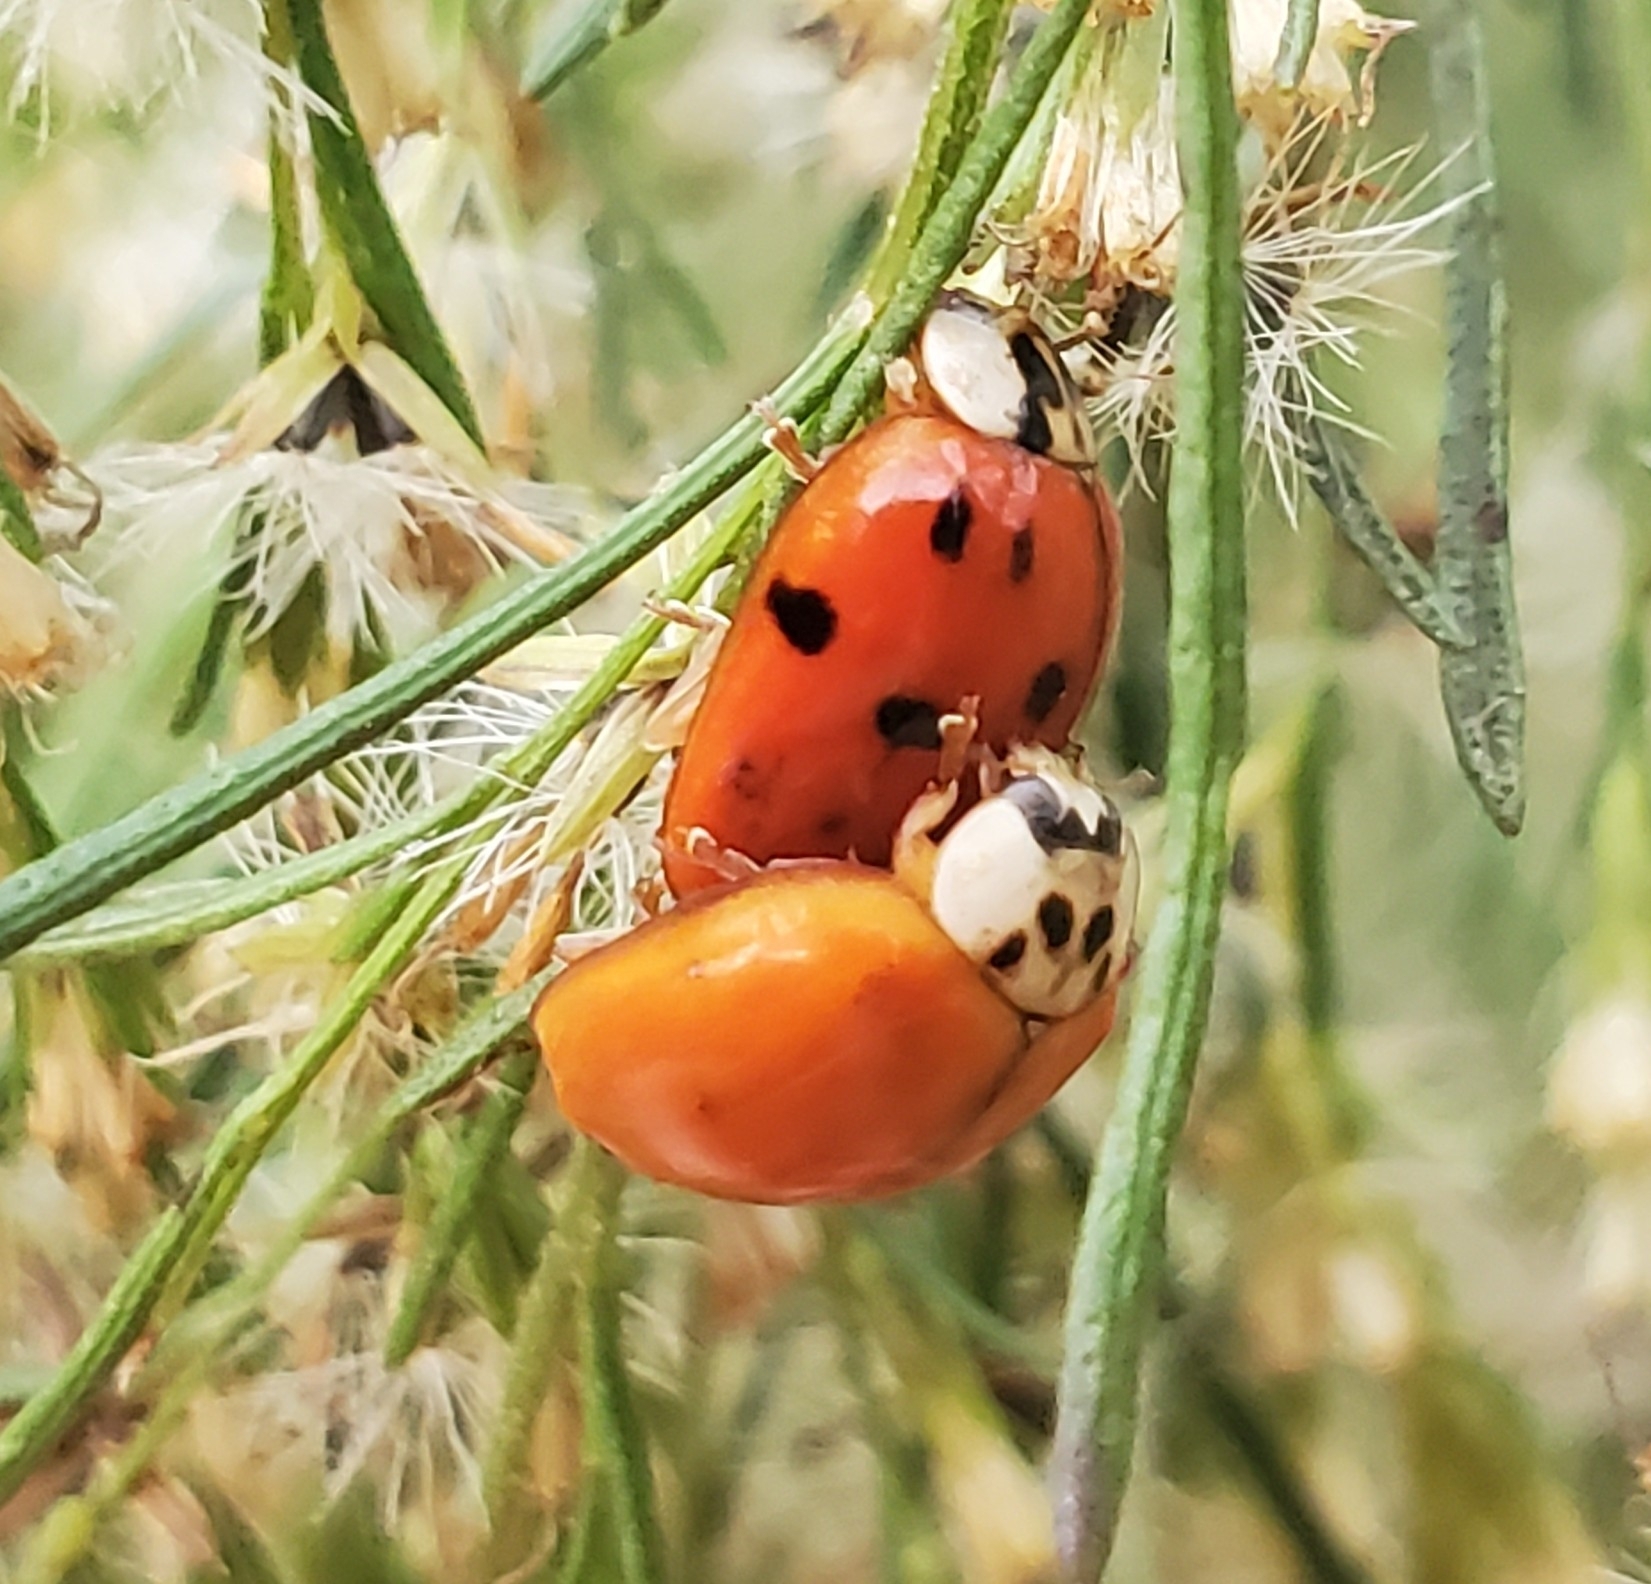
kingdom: Animalia
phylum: Arthropoda
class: Insecta
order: Coleoptera
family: Coccinellidae
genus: Harmonia
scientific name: Harmonia axyridis
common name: Harlequin ladybird
